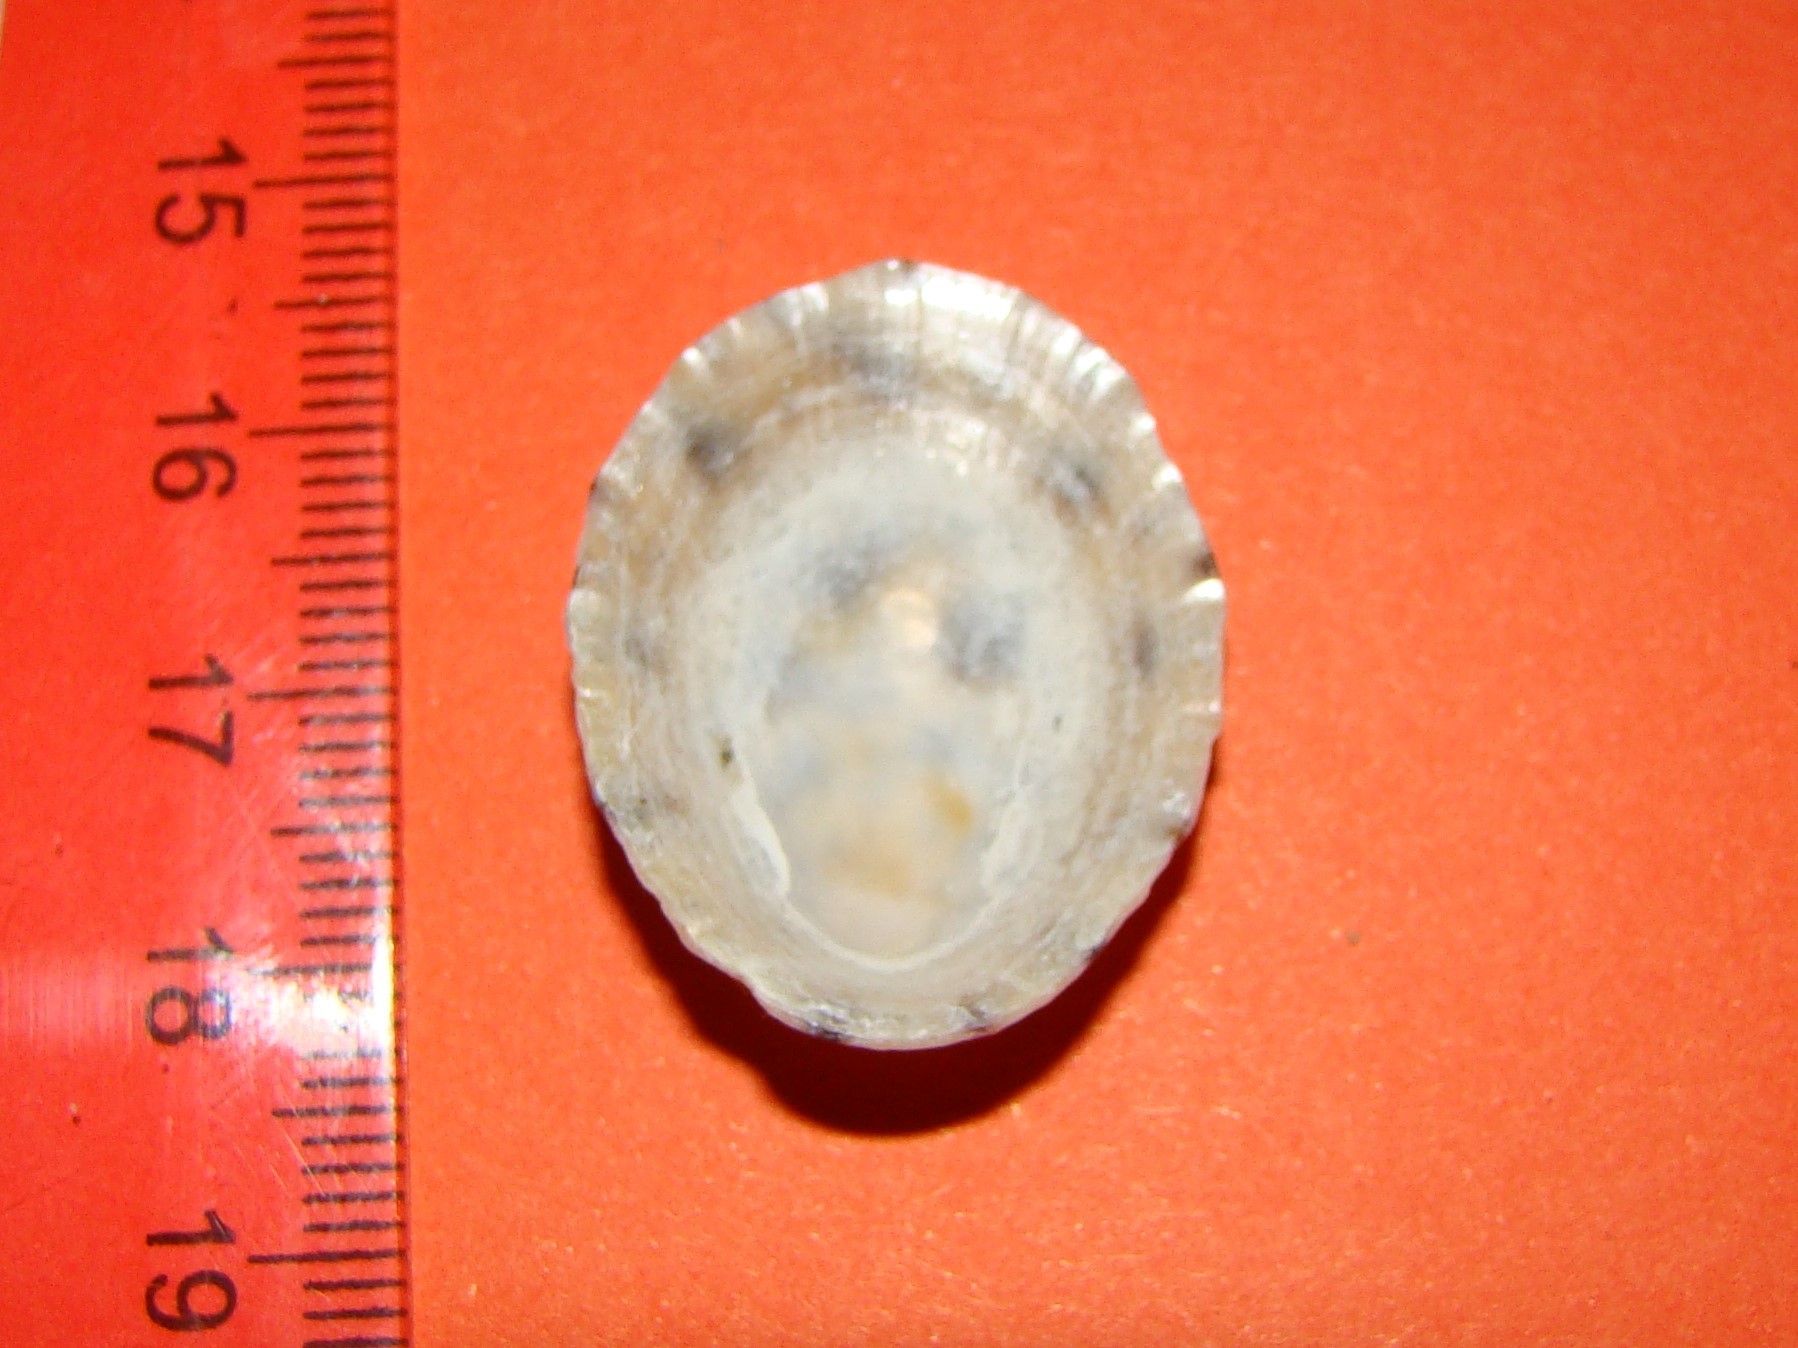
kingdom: Animalia
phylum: Mollusca
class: Gastropoda
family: Nacellidae
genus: Cellana
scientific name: Cellana radians
